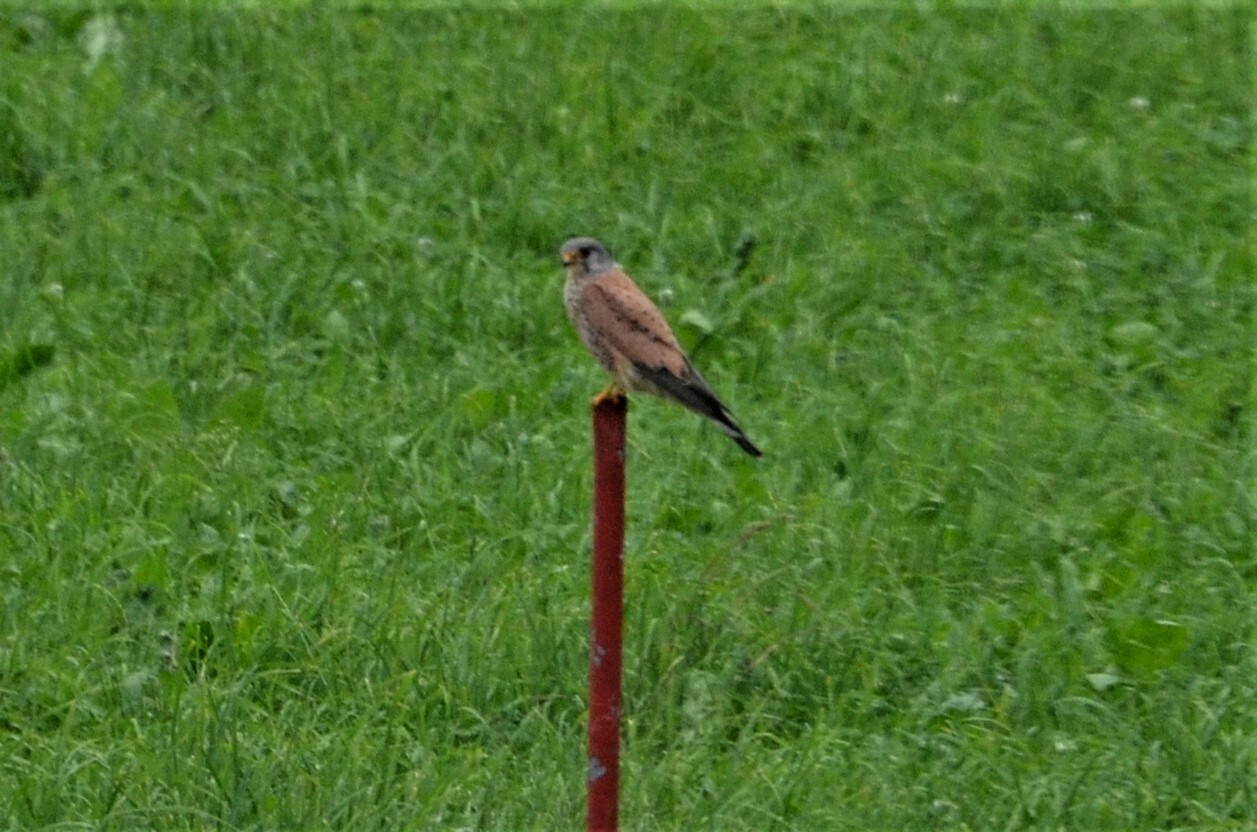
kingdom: Animalia
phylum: Chordata
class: Aves
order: Falconiformes
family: Falconidae
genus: Falco
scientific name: Falco tinnunculus
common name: Common kestrel
